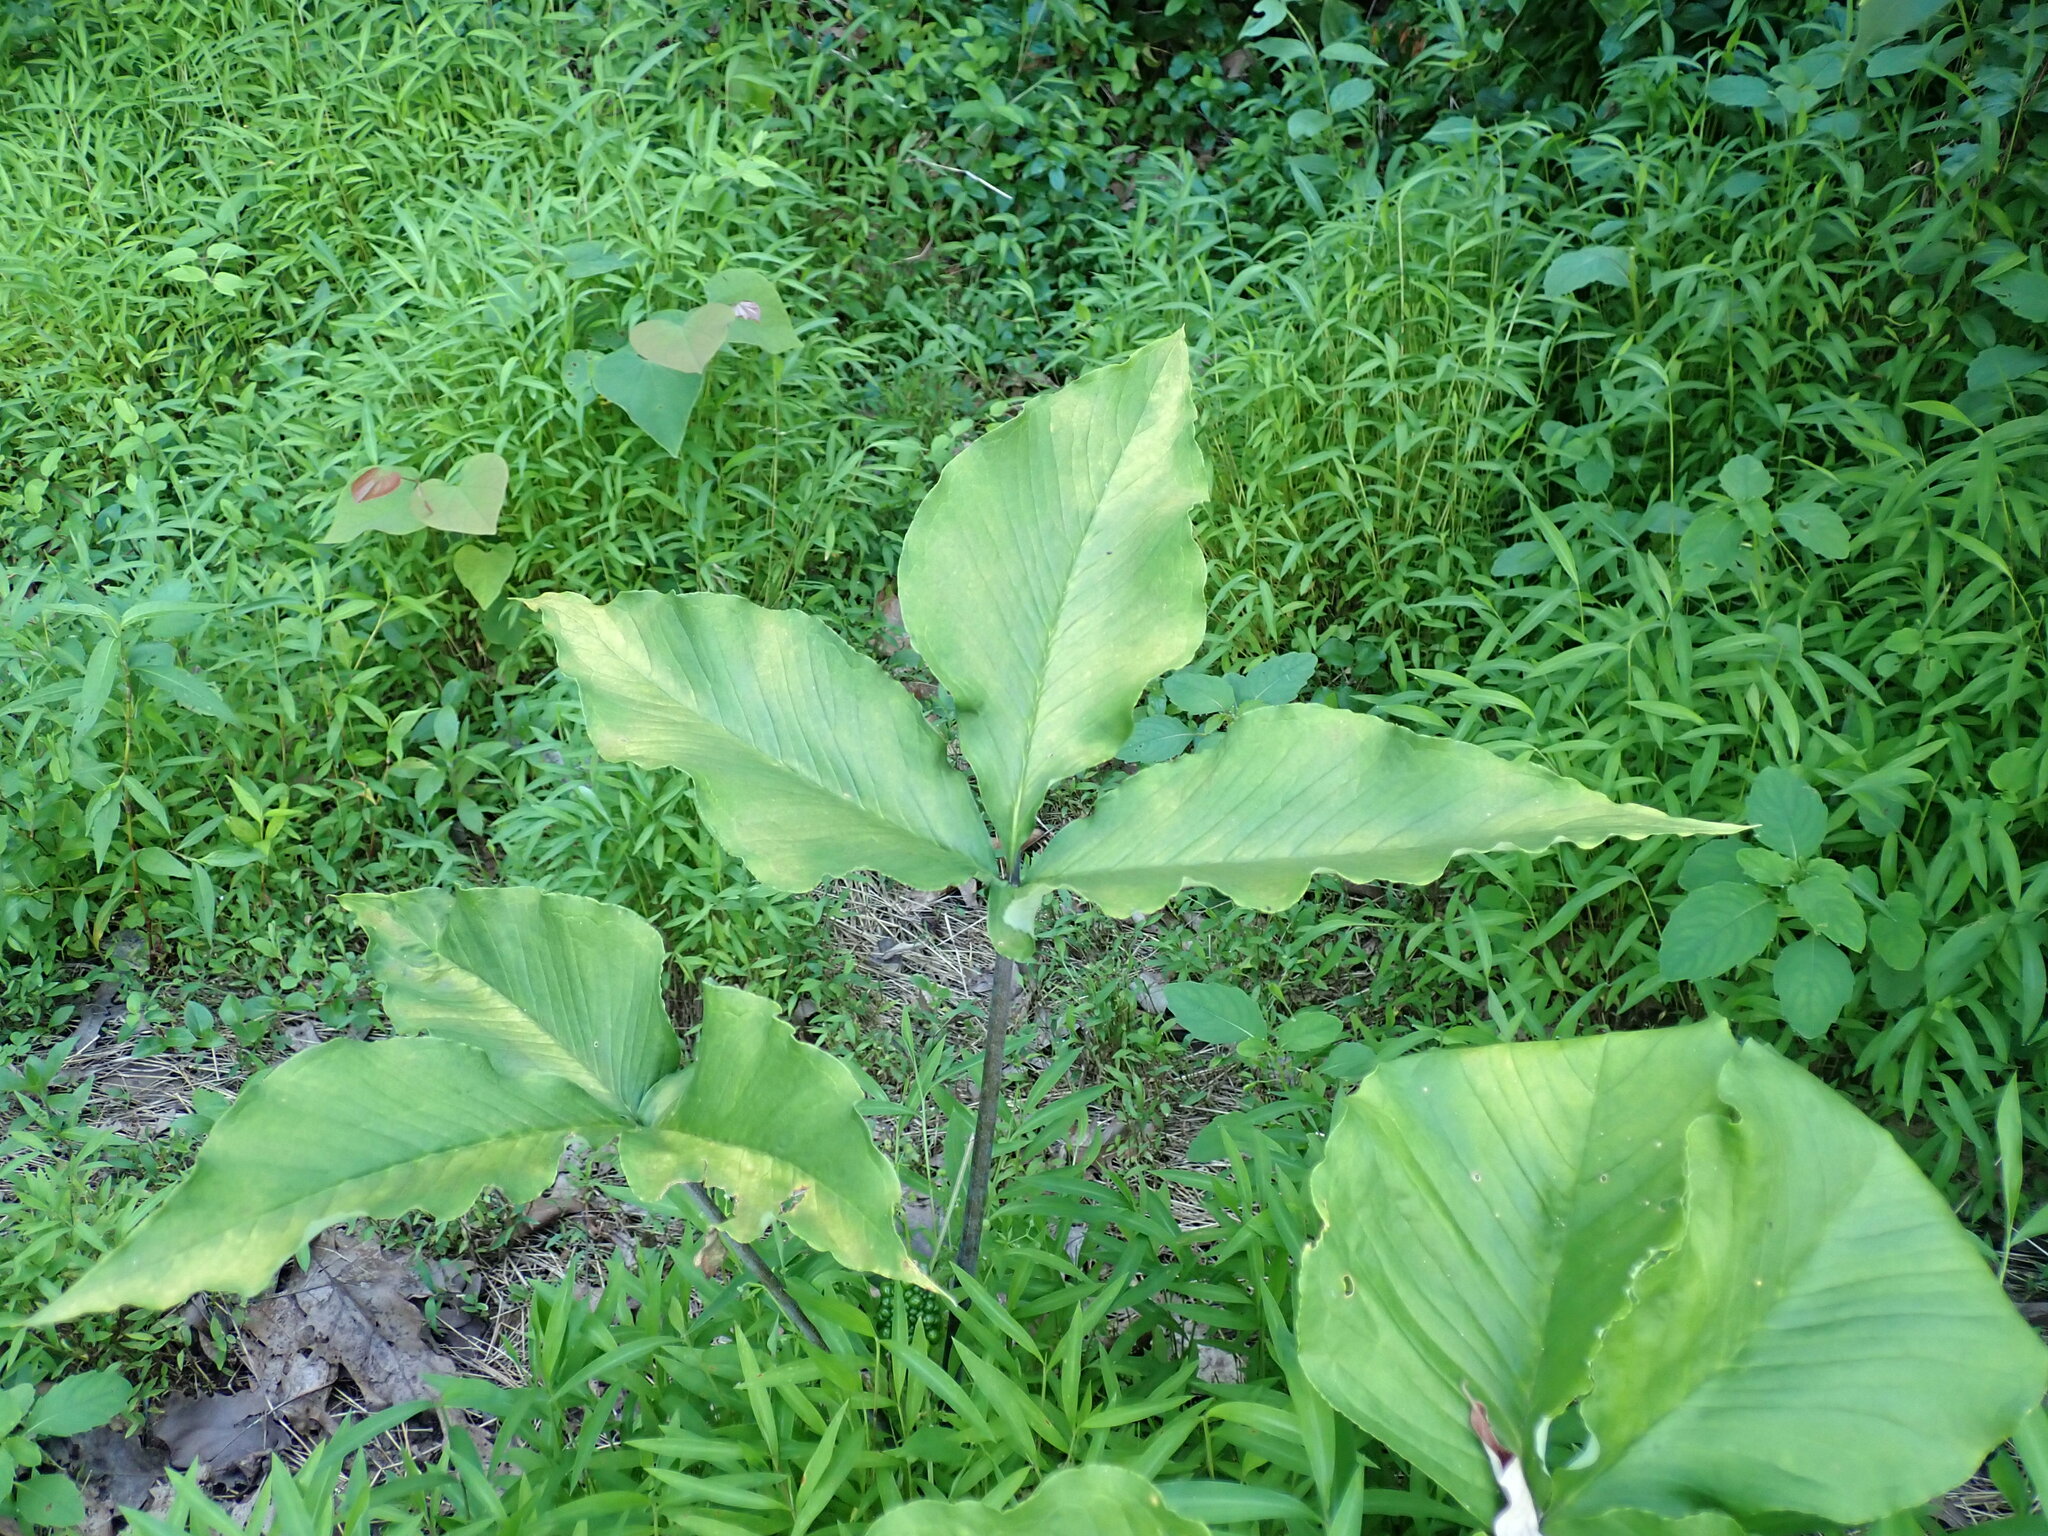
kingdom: Plantae
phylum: Tracheophyta
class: Liliopsida
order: Alismatales
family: Araceae
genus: Arisaema
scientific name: Arisaema triphyllum
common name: Jack-in-the-pulpit
